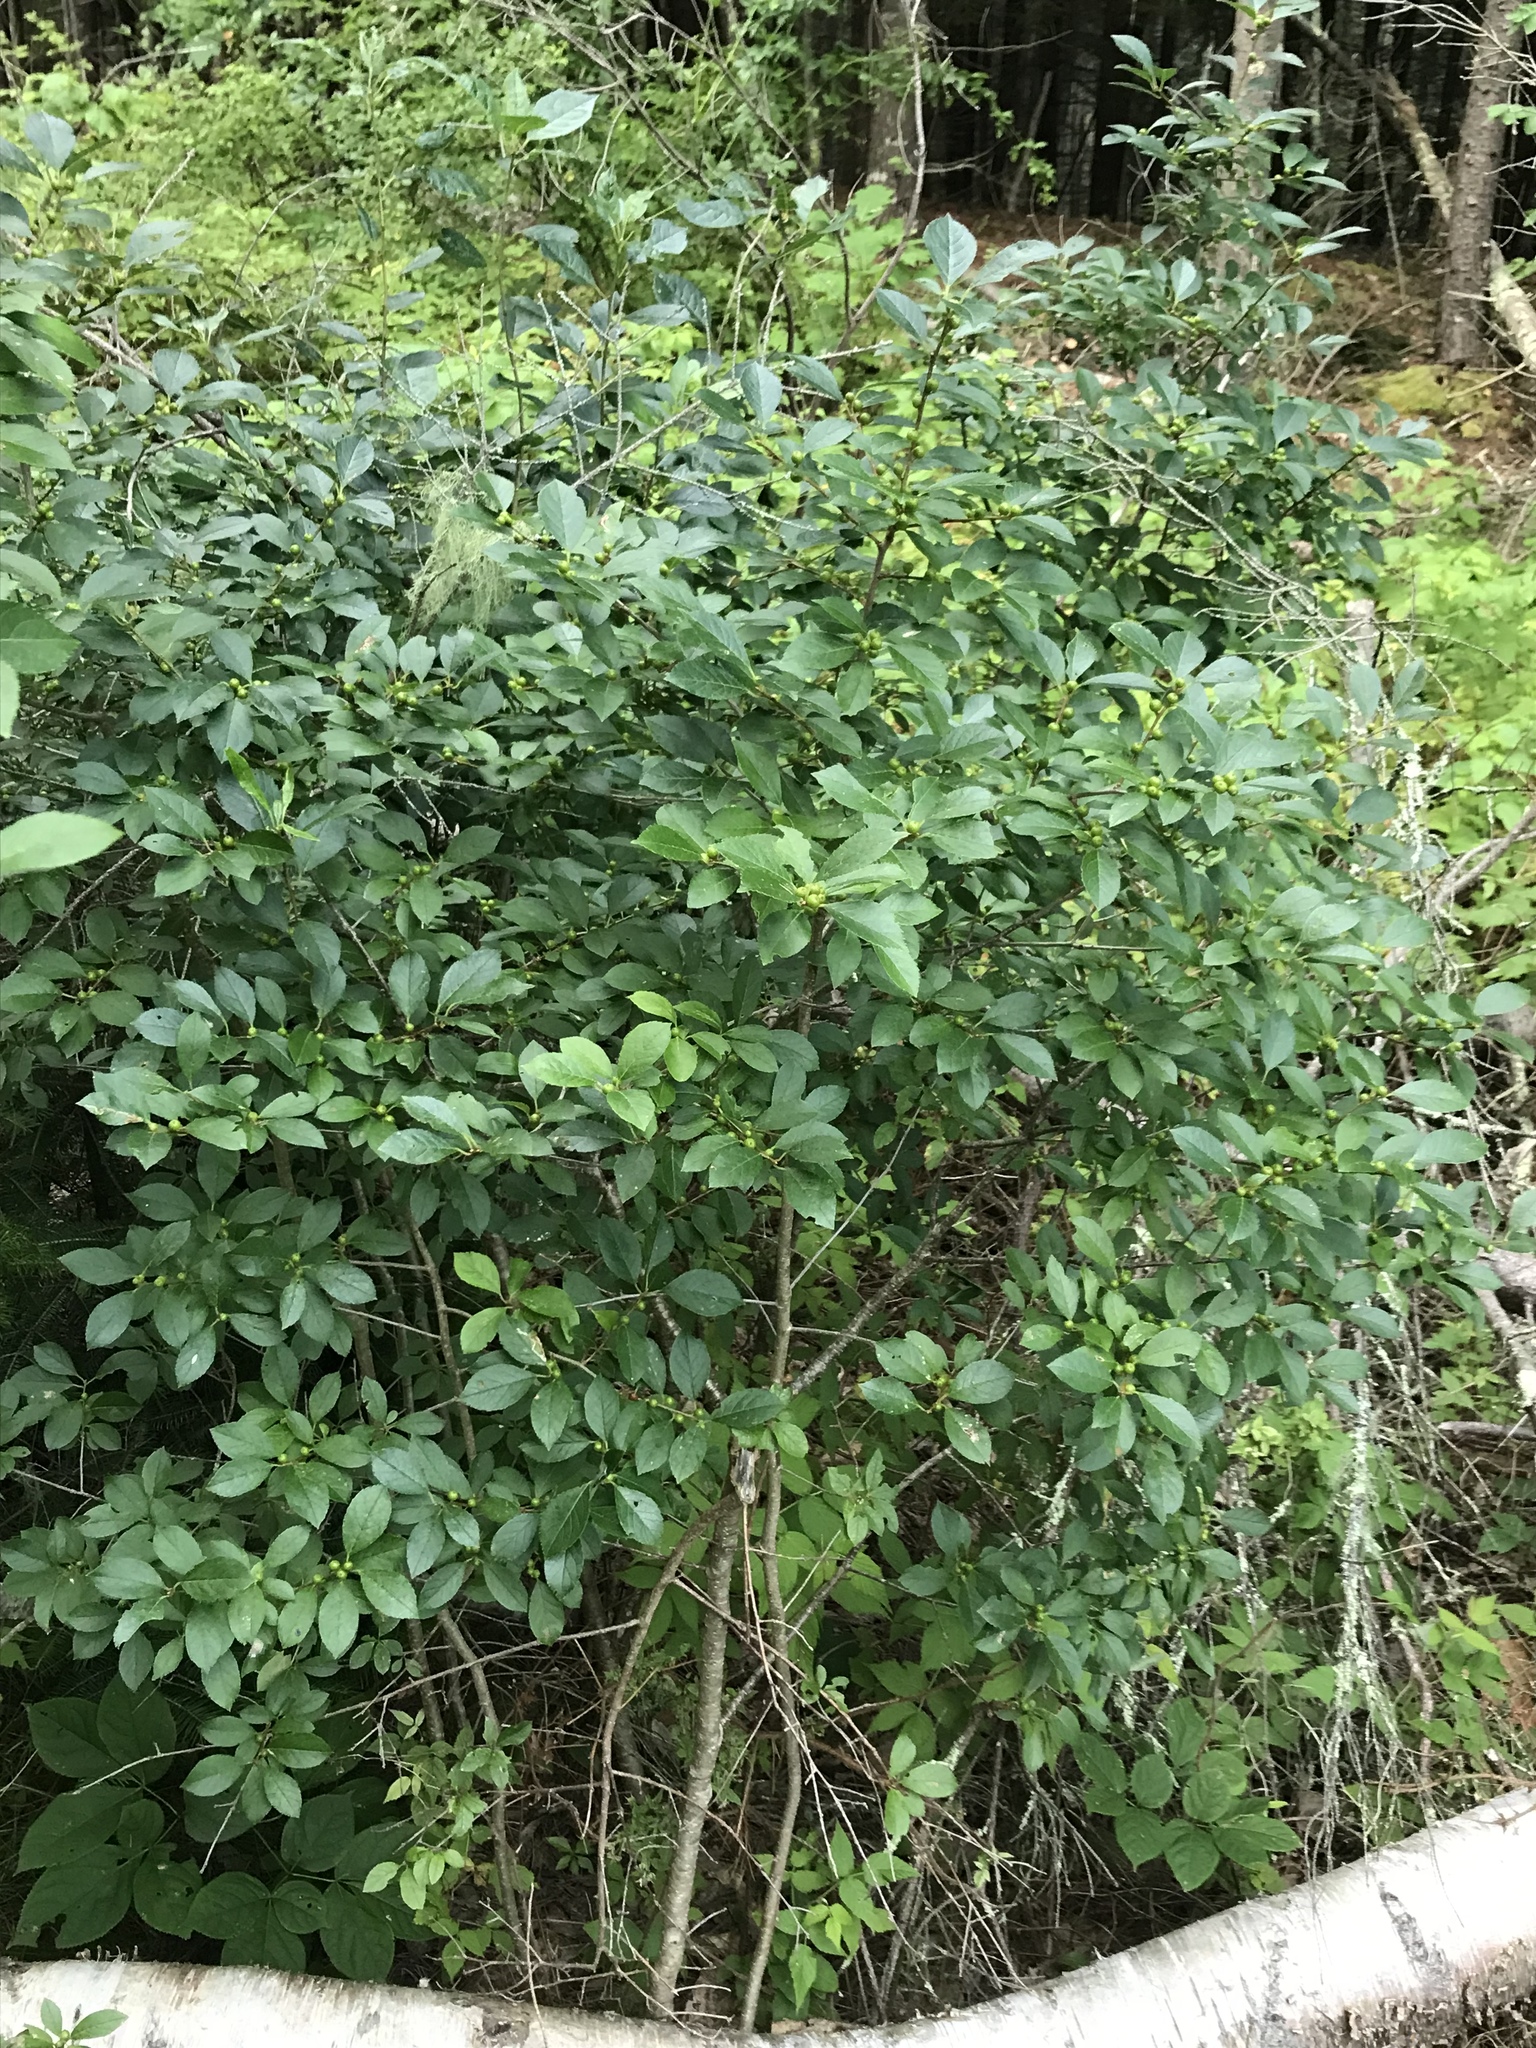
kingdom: Plantae
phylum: Tracheophyta
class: Magnoliopsida
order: Aquifoliales
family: Aquifoliaceae
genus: Ilex
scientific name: Ilex verticillata
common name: Virginia winterberry
